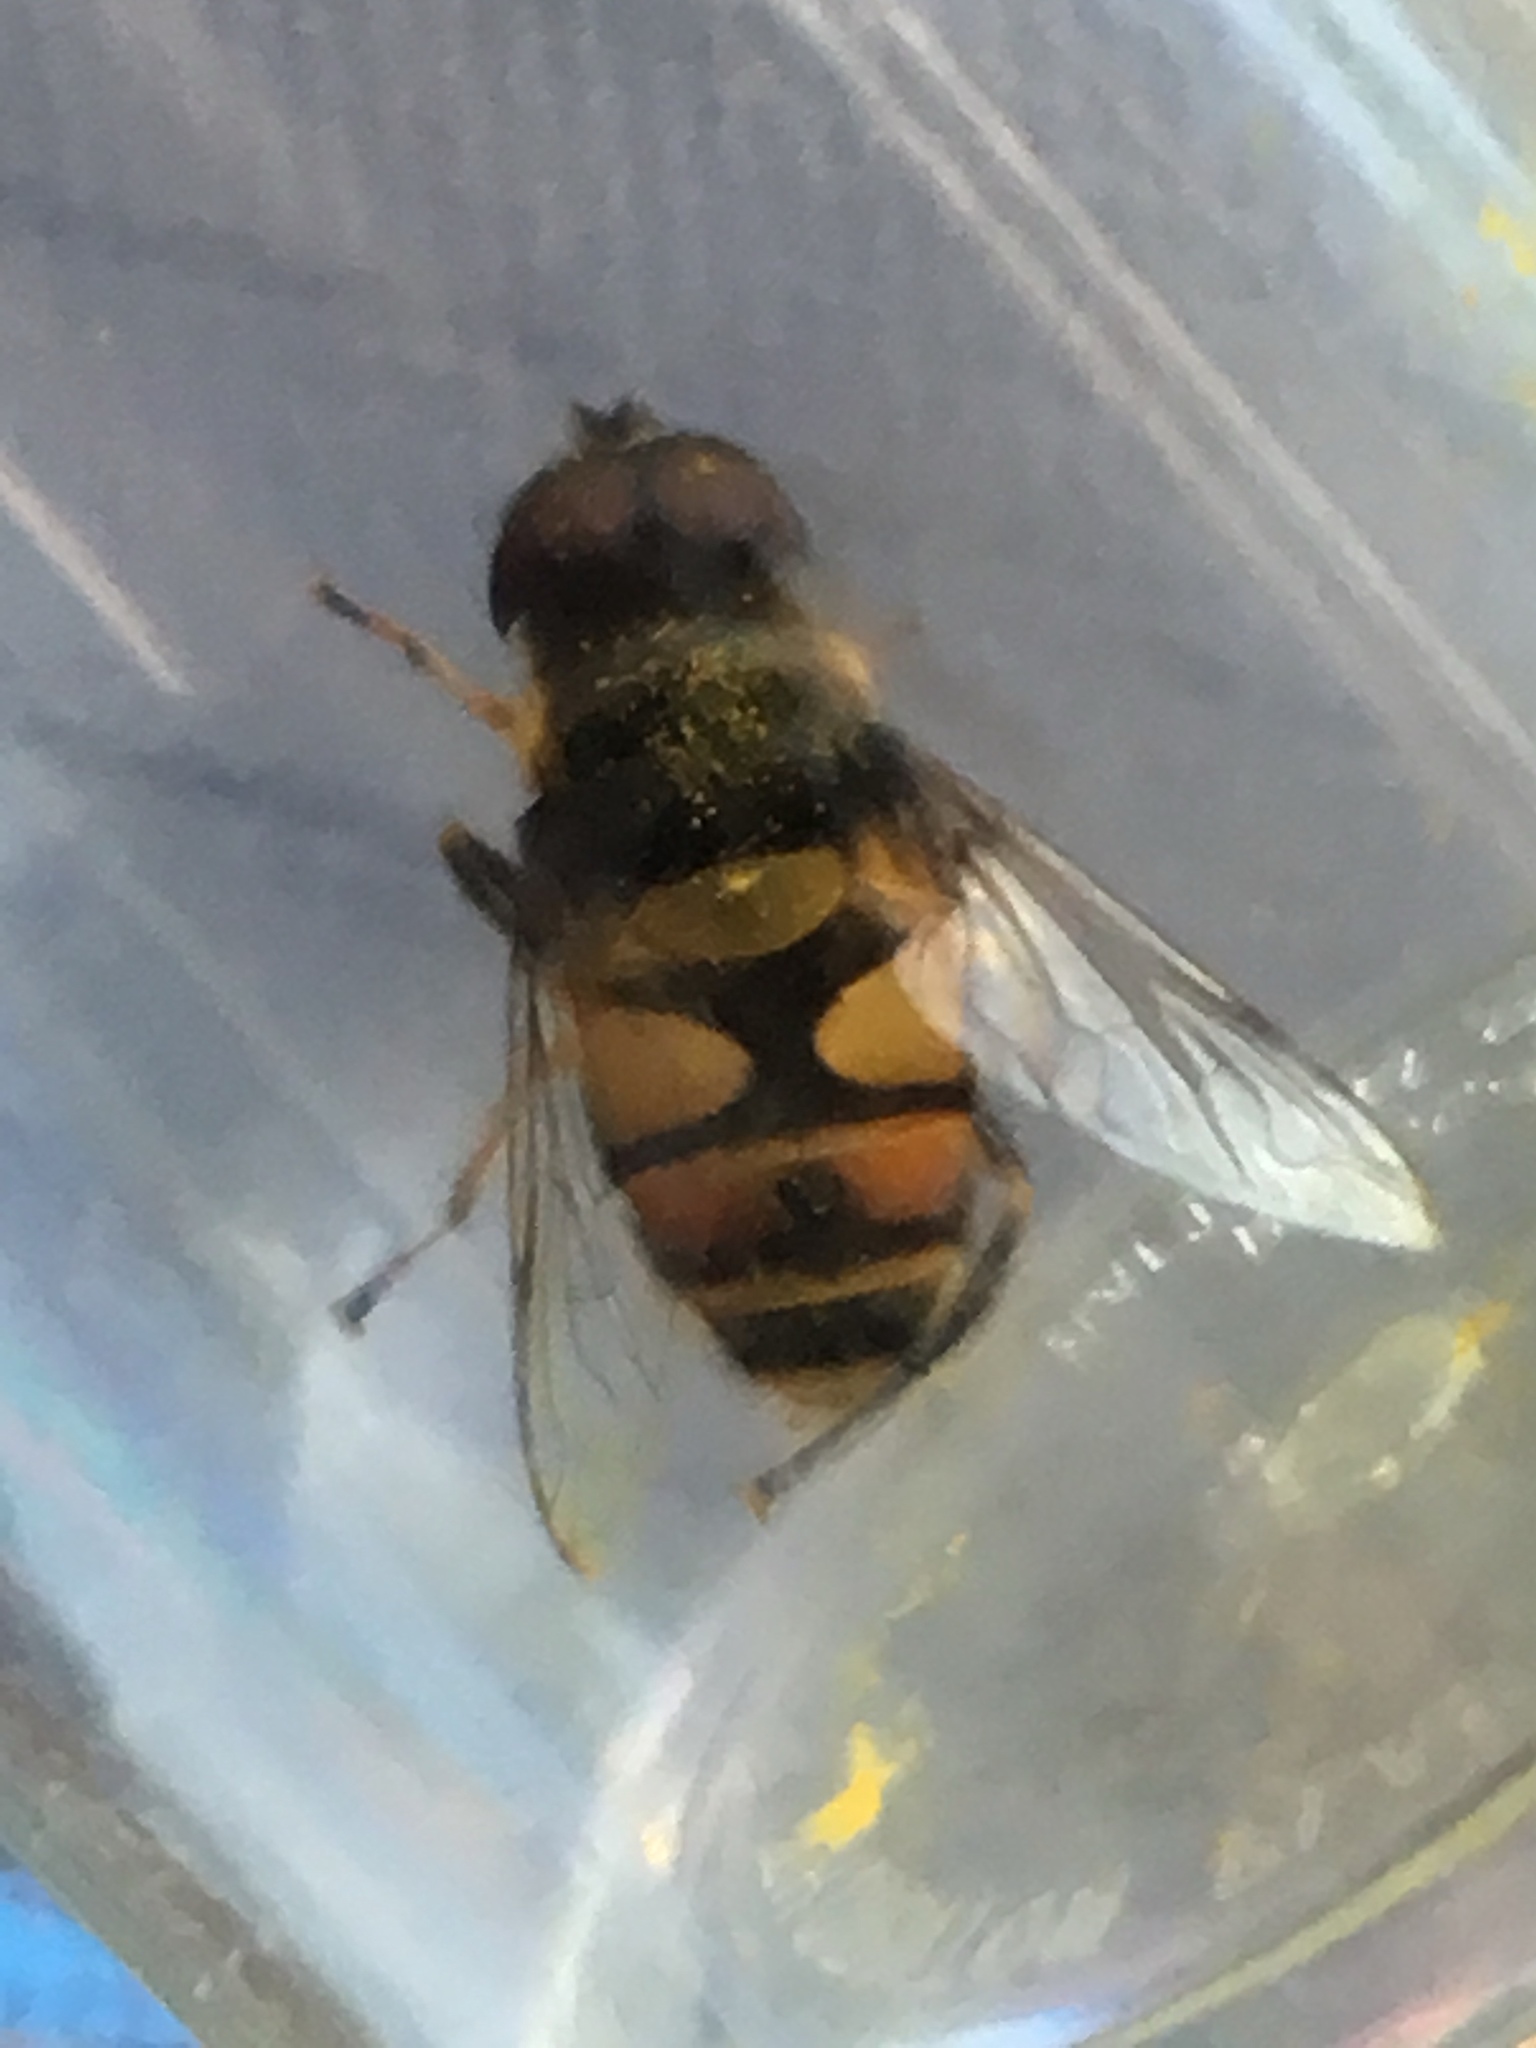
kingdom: Animalia
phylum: Arthropoda
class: Insecta
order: Diptera
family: Syrphidae
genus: Eristalis
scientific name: Eristalis transversa
